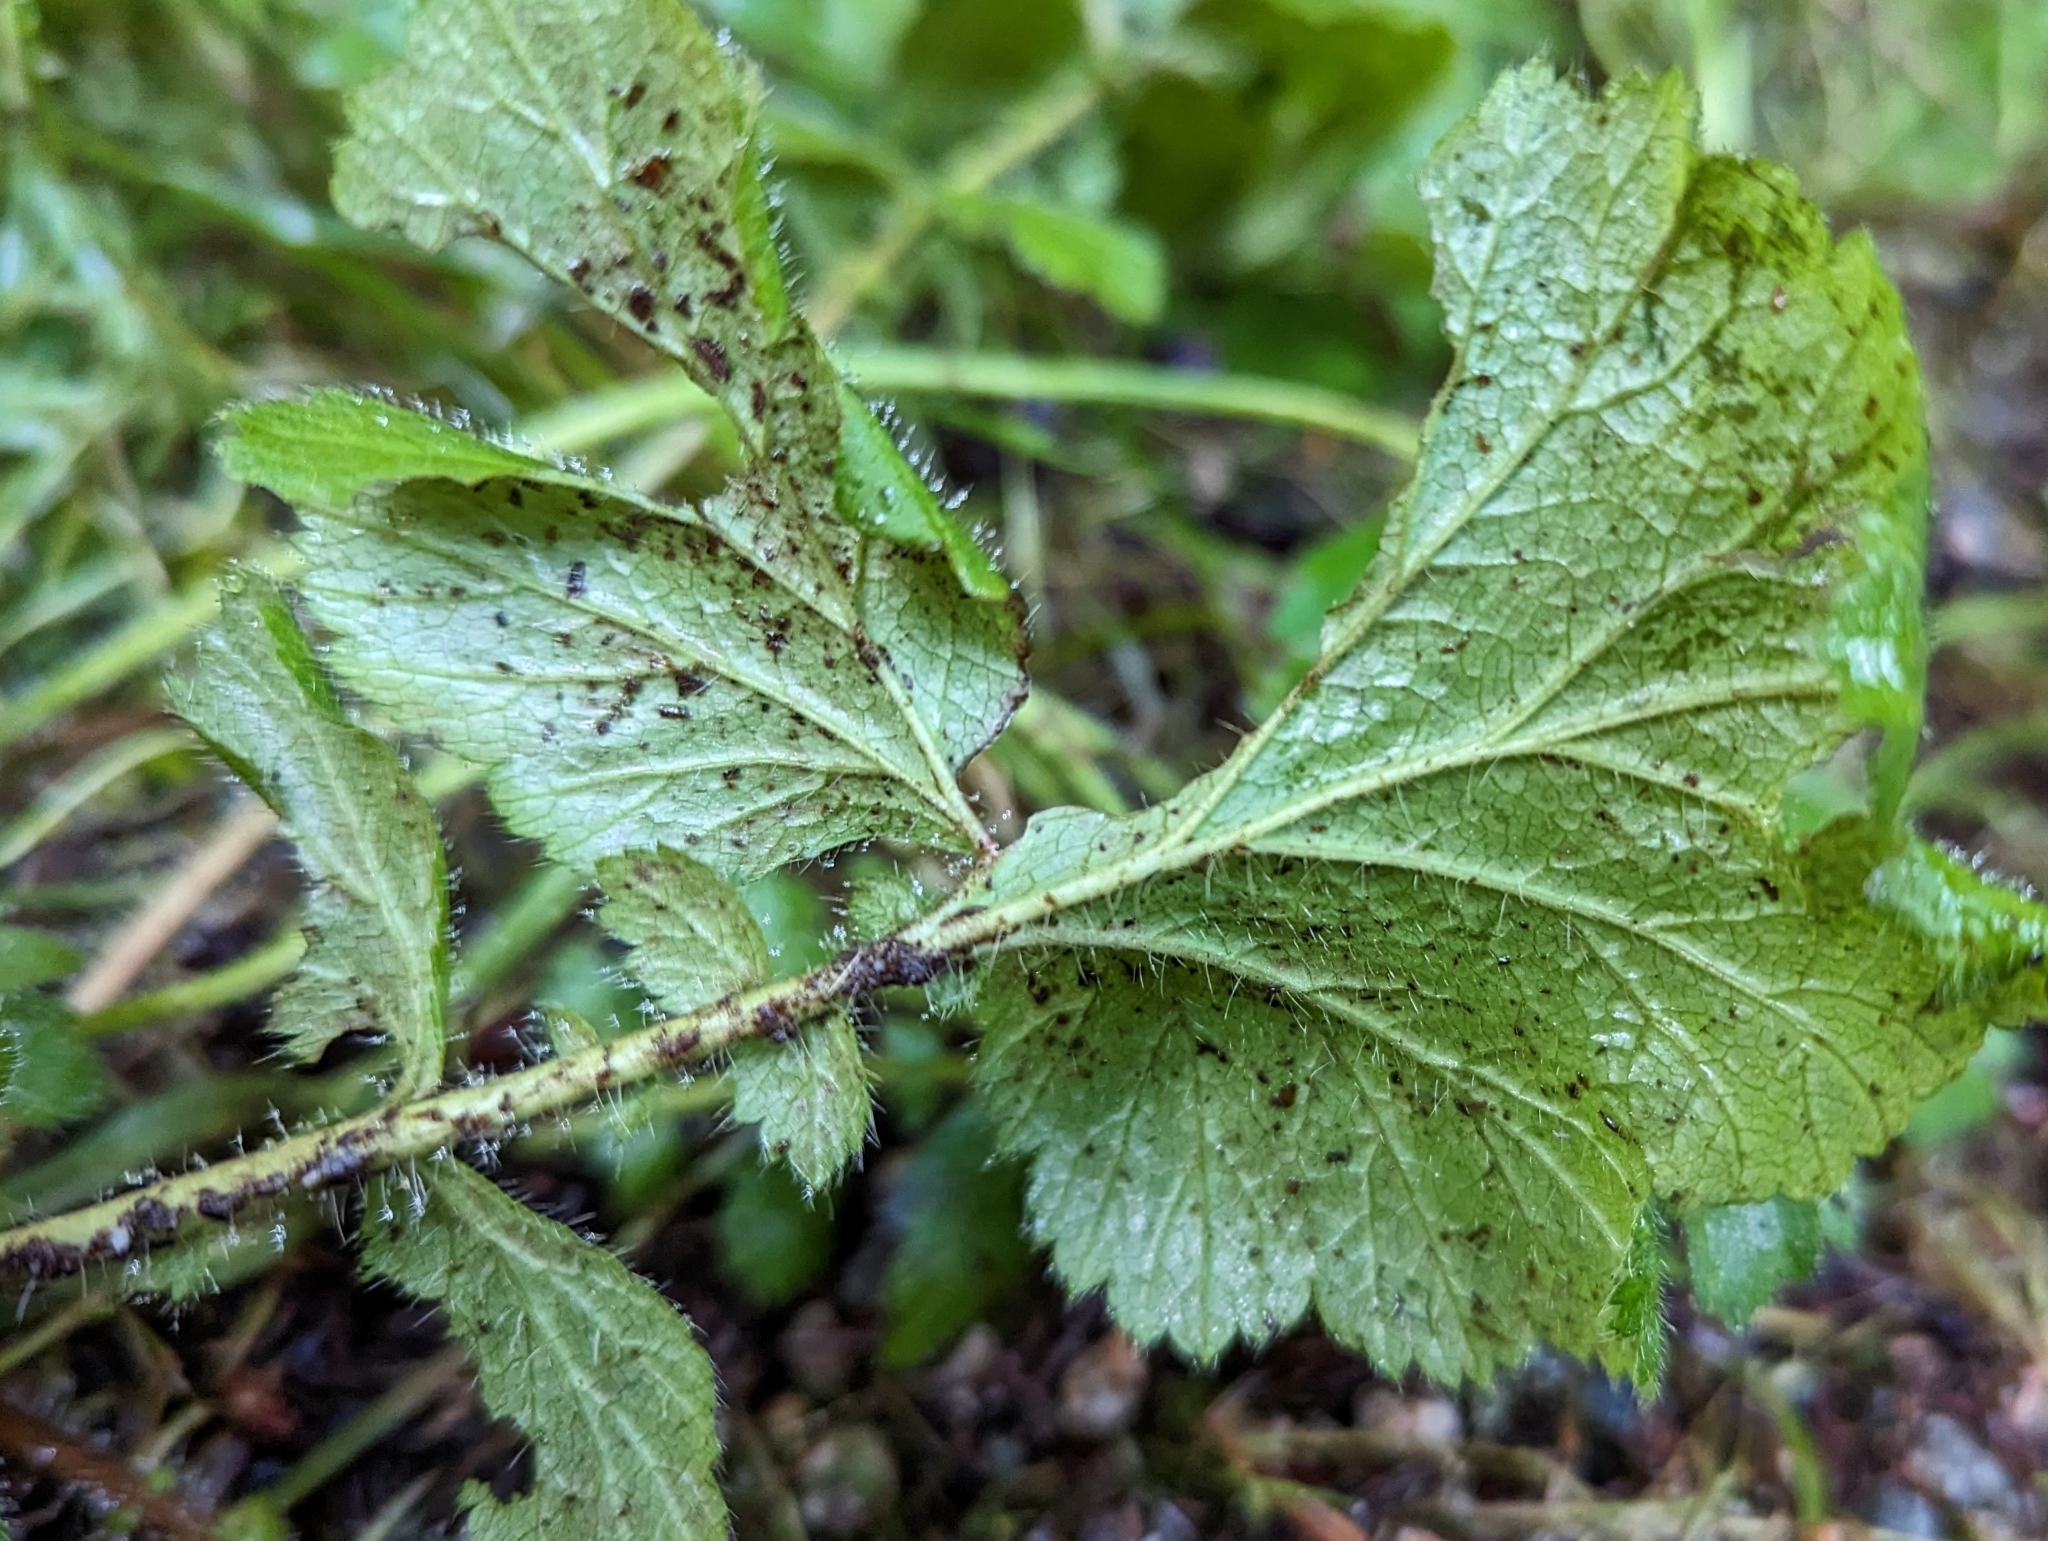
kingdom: Plantae
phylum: Tracheophyta
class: Magnoliopsida
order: Rosales
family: Rosaceae
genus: Geum
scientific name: Geum macrophyllum
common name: Large-leaved avens
